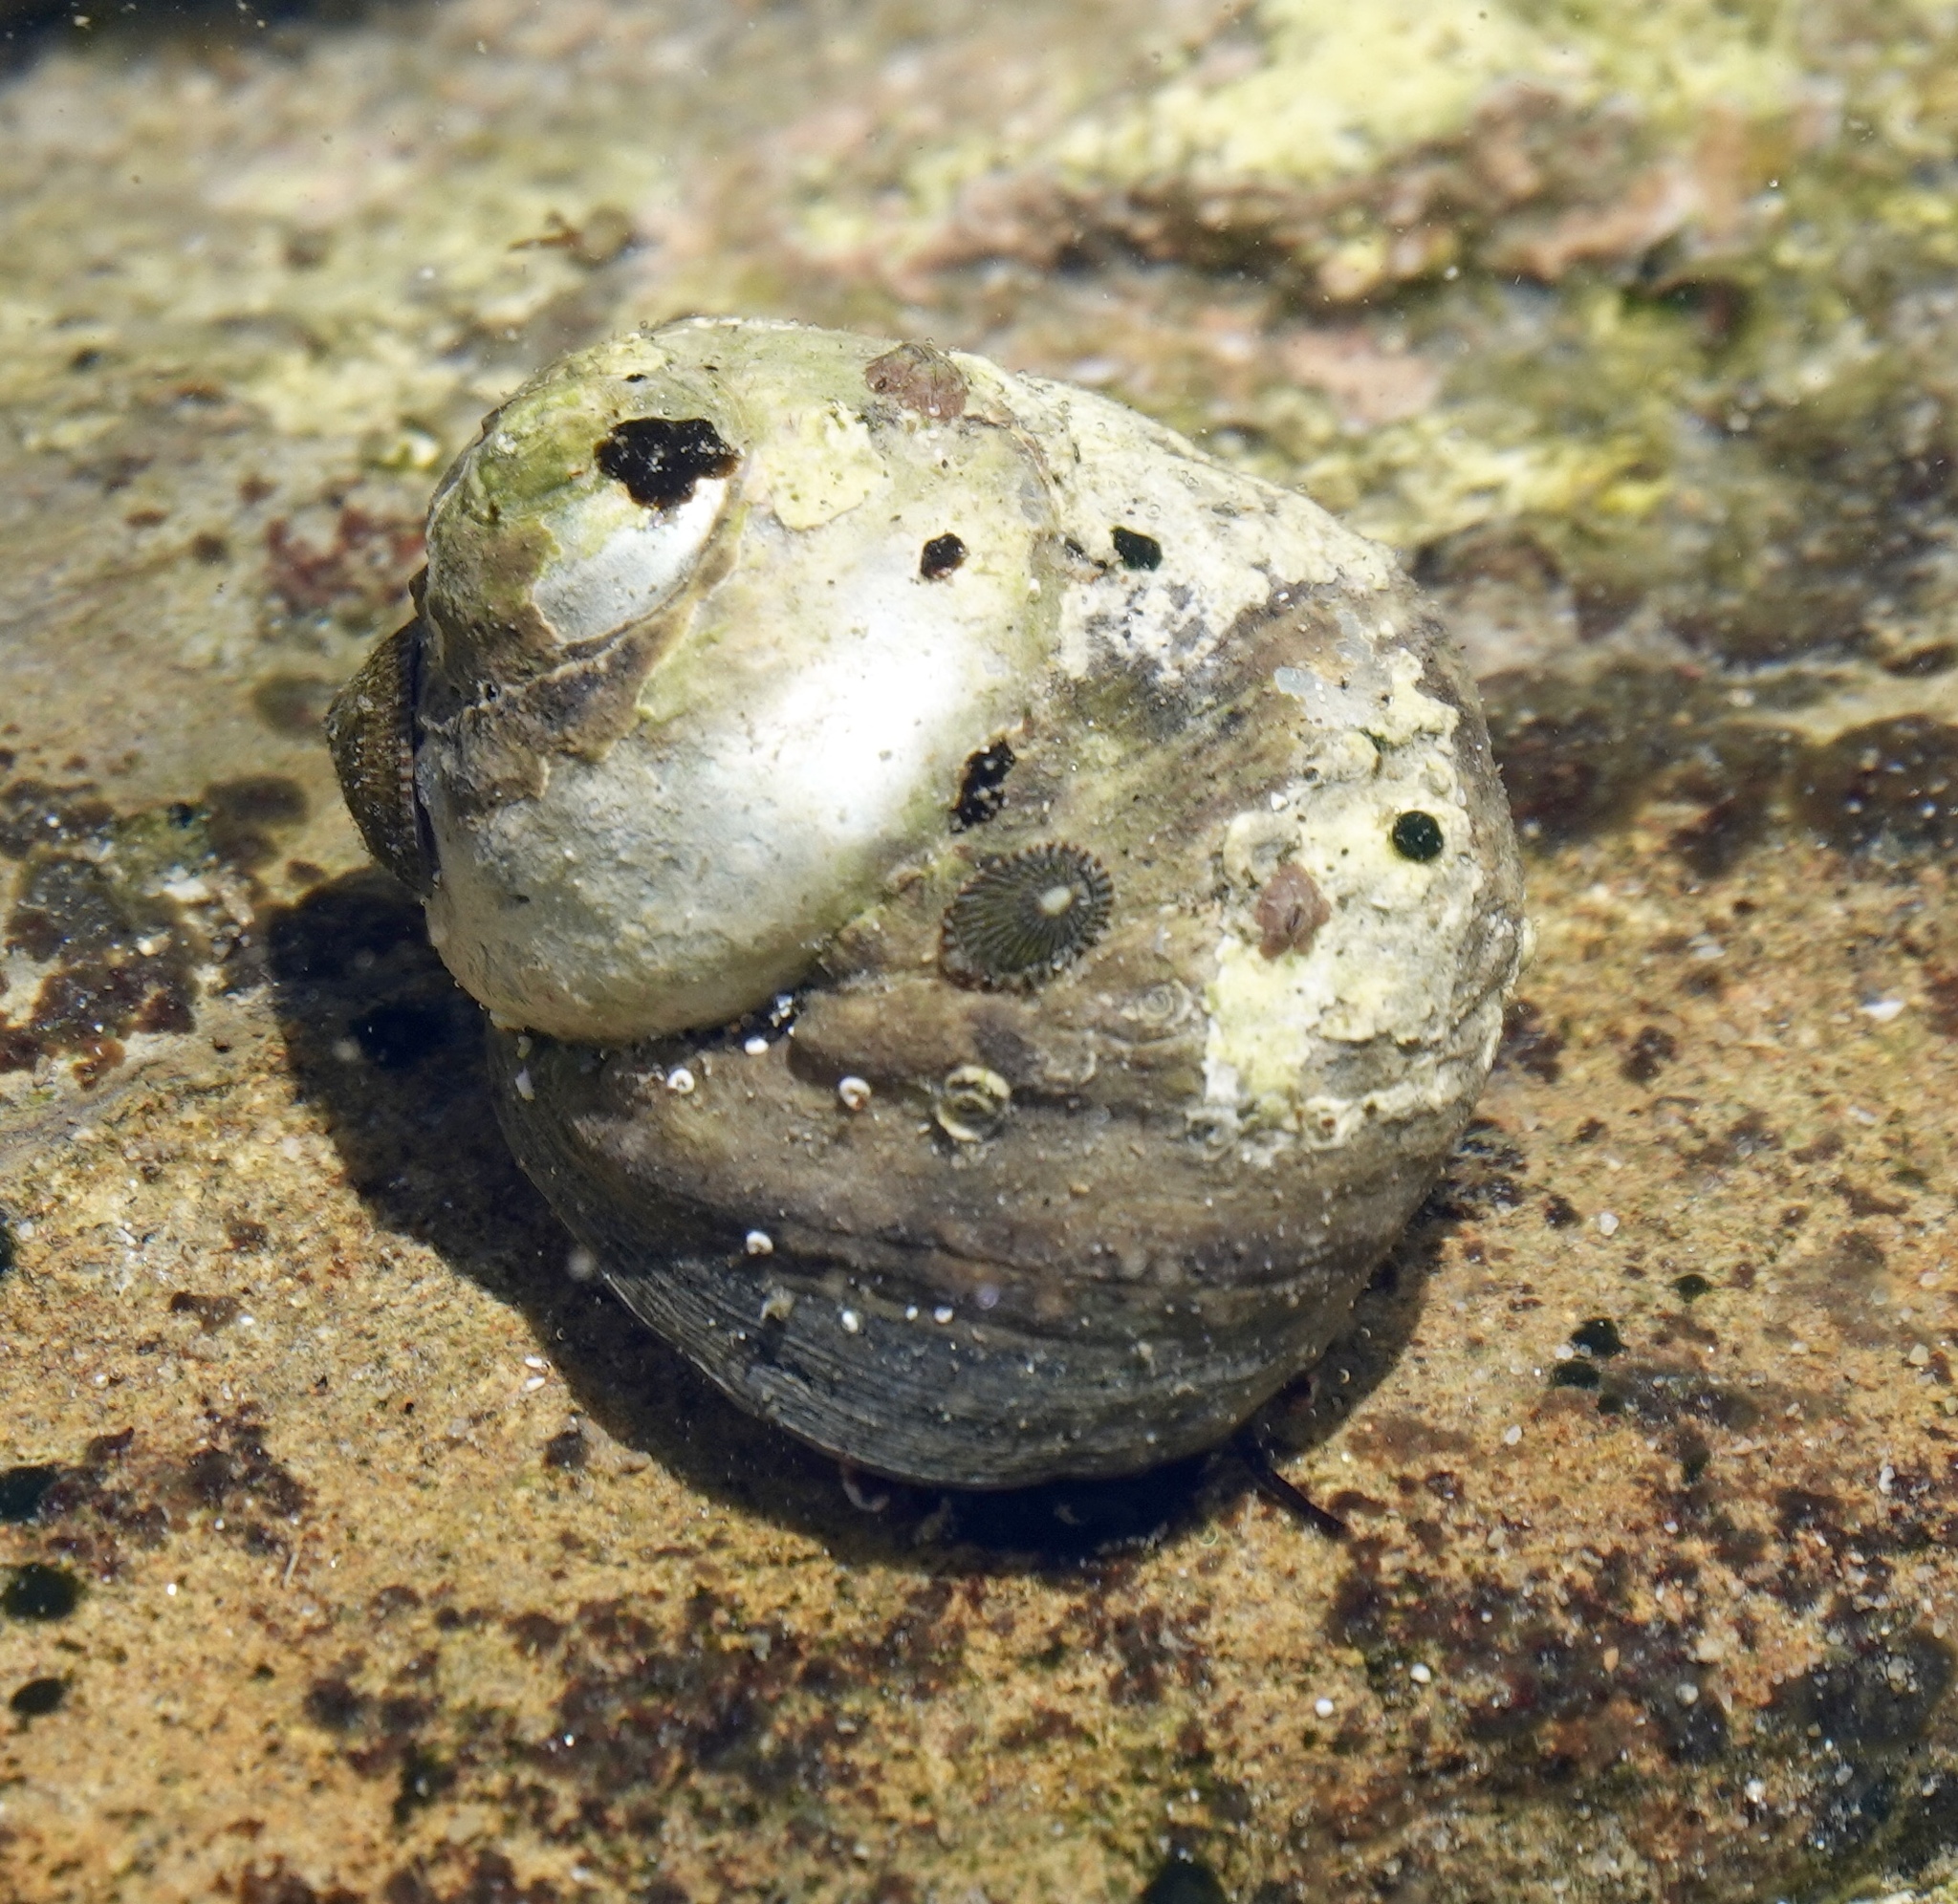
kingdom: Animalia
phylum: Mollusca
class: Gastropoda
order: Trochida
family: Tegulidae
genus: Tegula
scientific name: Tegula aureotincta
